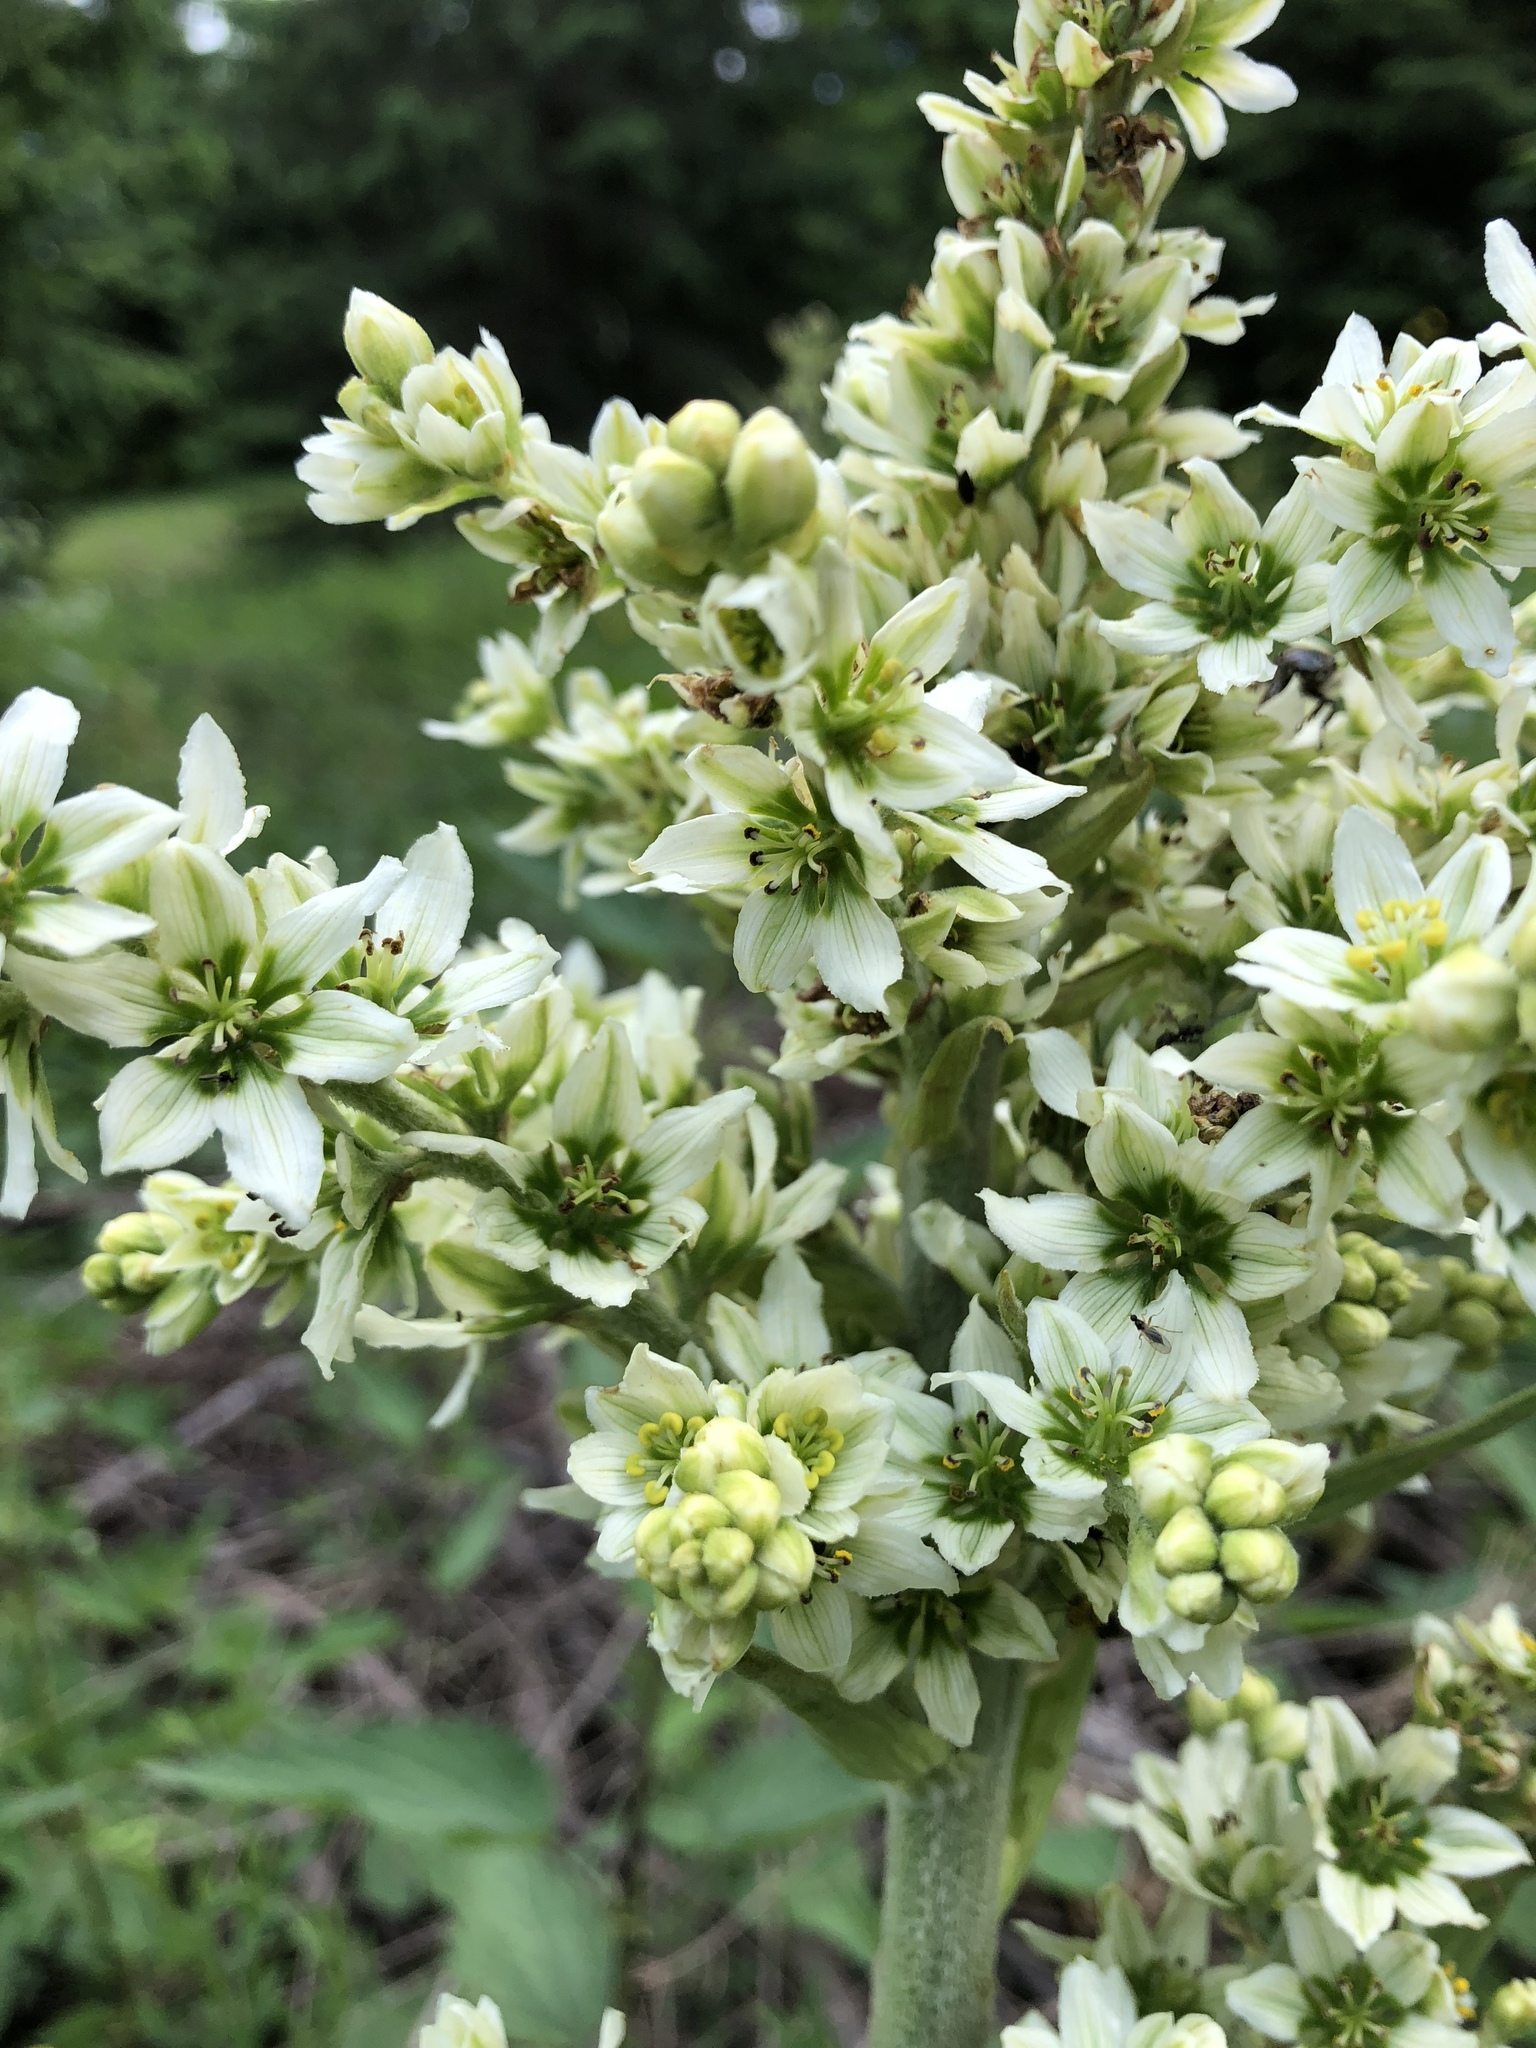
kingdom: Plantae
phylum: Tracheophyta
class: Liliopsida
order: Liliales
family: Melanthiaceae
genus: Veratrum
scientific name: Veratrum album
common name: White veratrum
